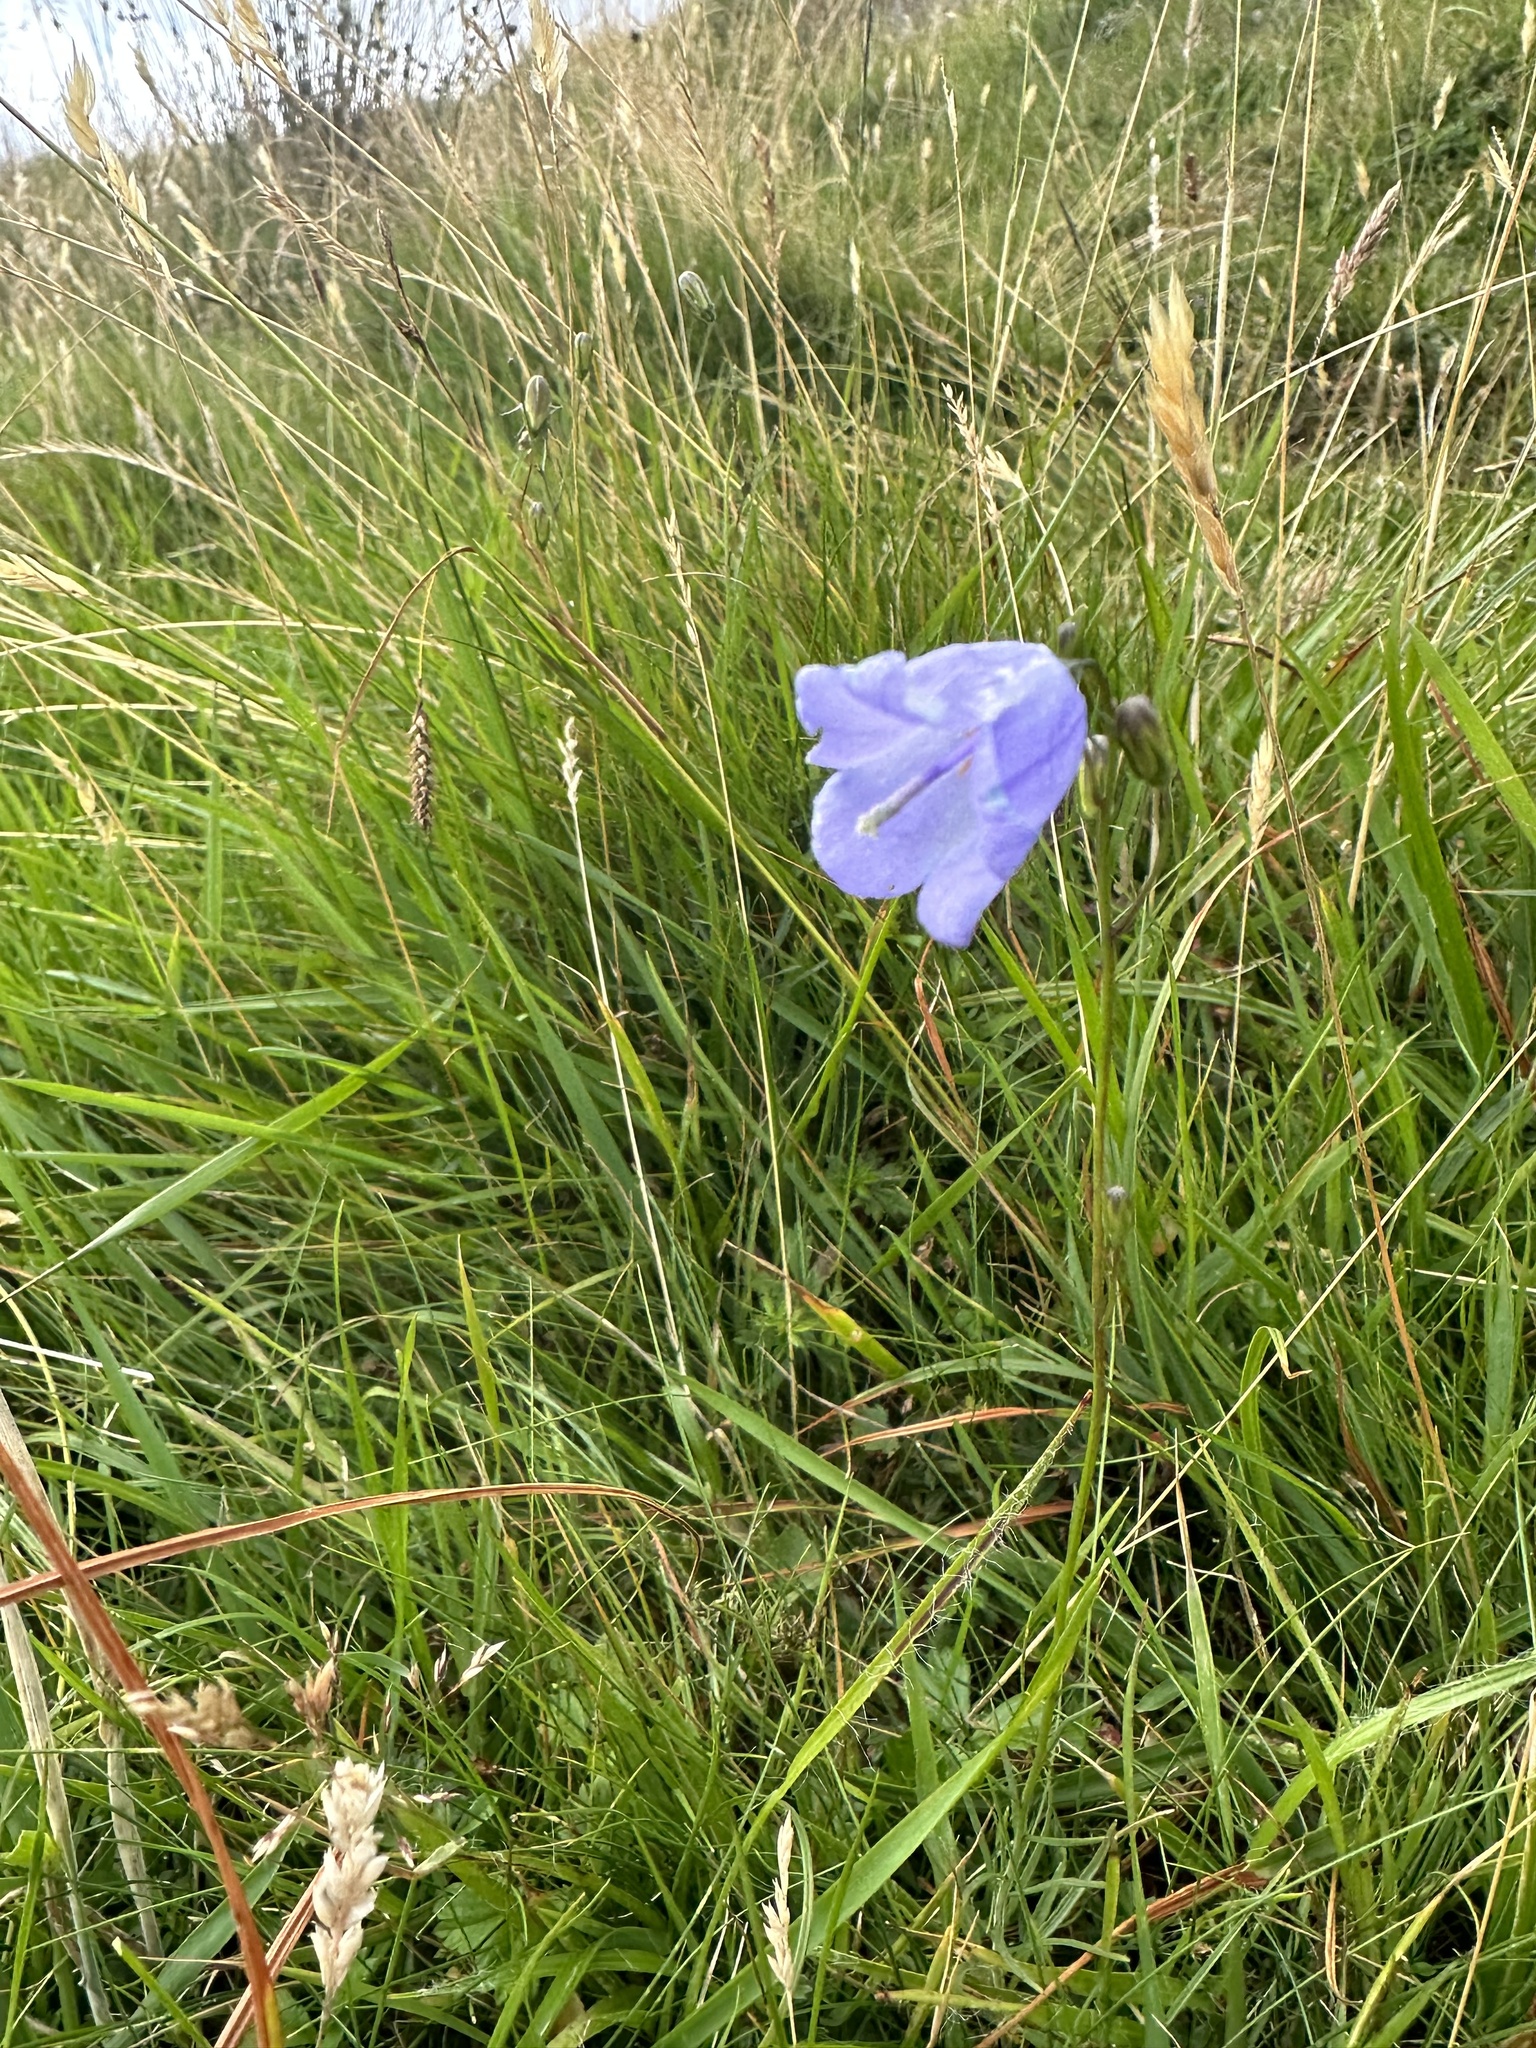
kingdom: Plantae
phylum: Tracheophyta
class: Magnoliopsida
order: Asterales
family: Campanulaceae
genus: Campanula
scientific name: Campanula rotundifolia
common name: Harebell
